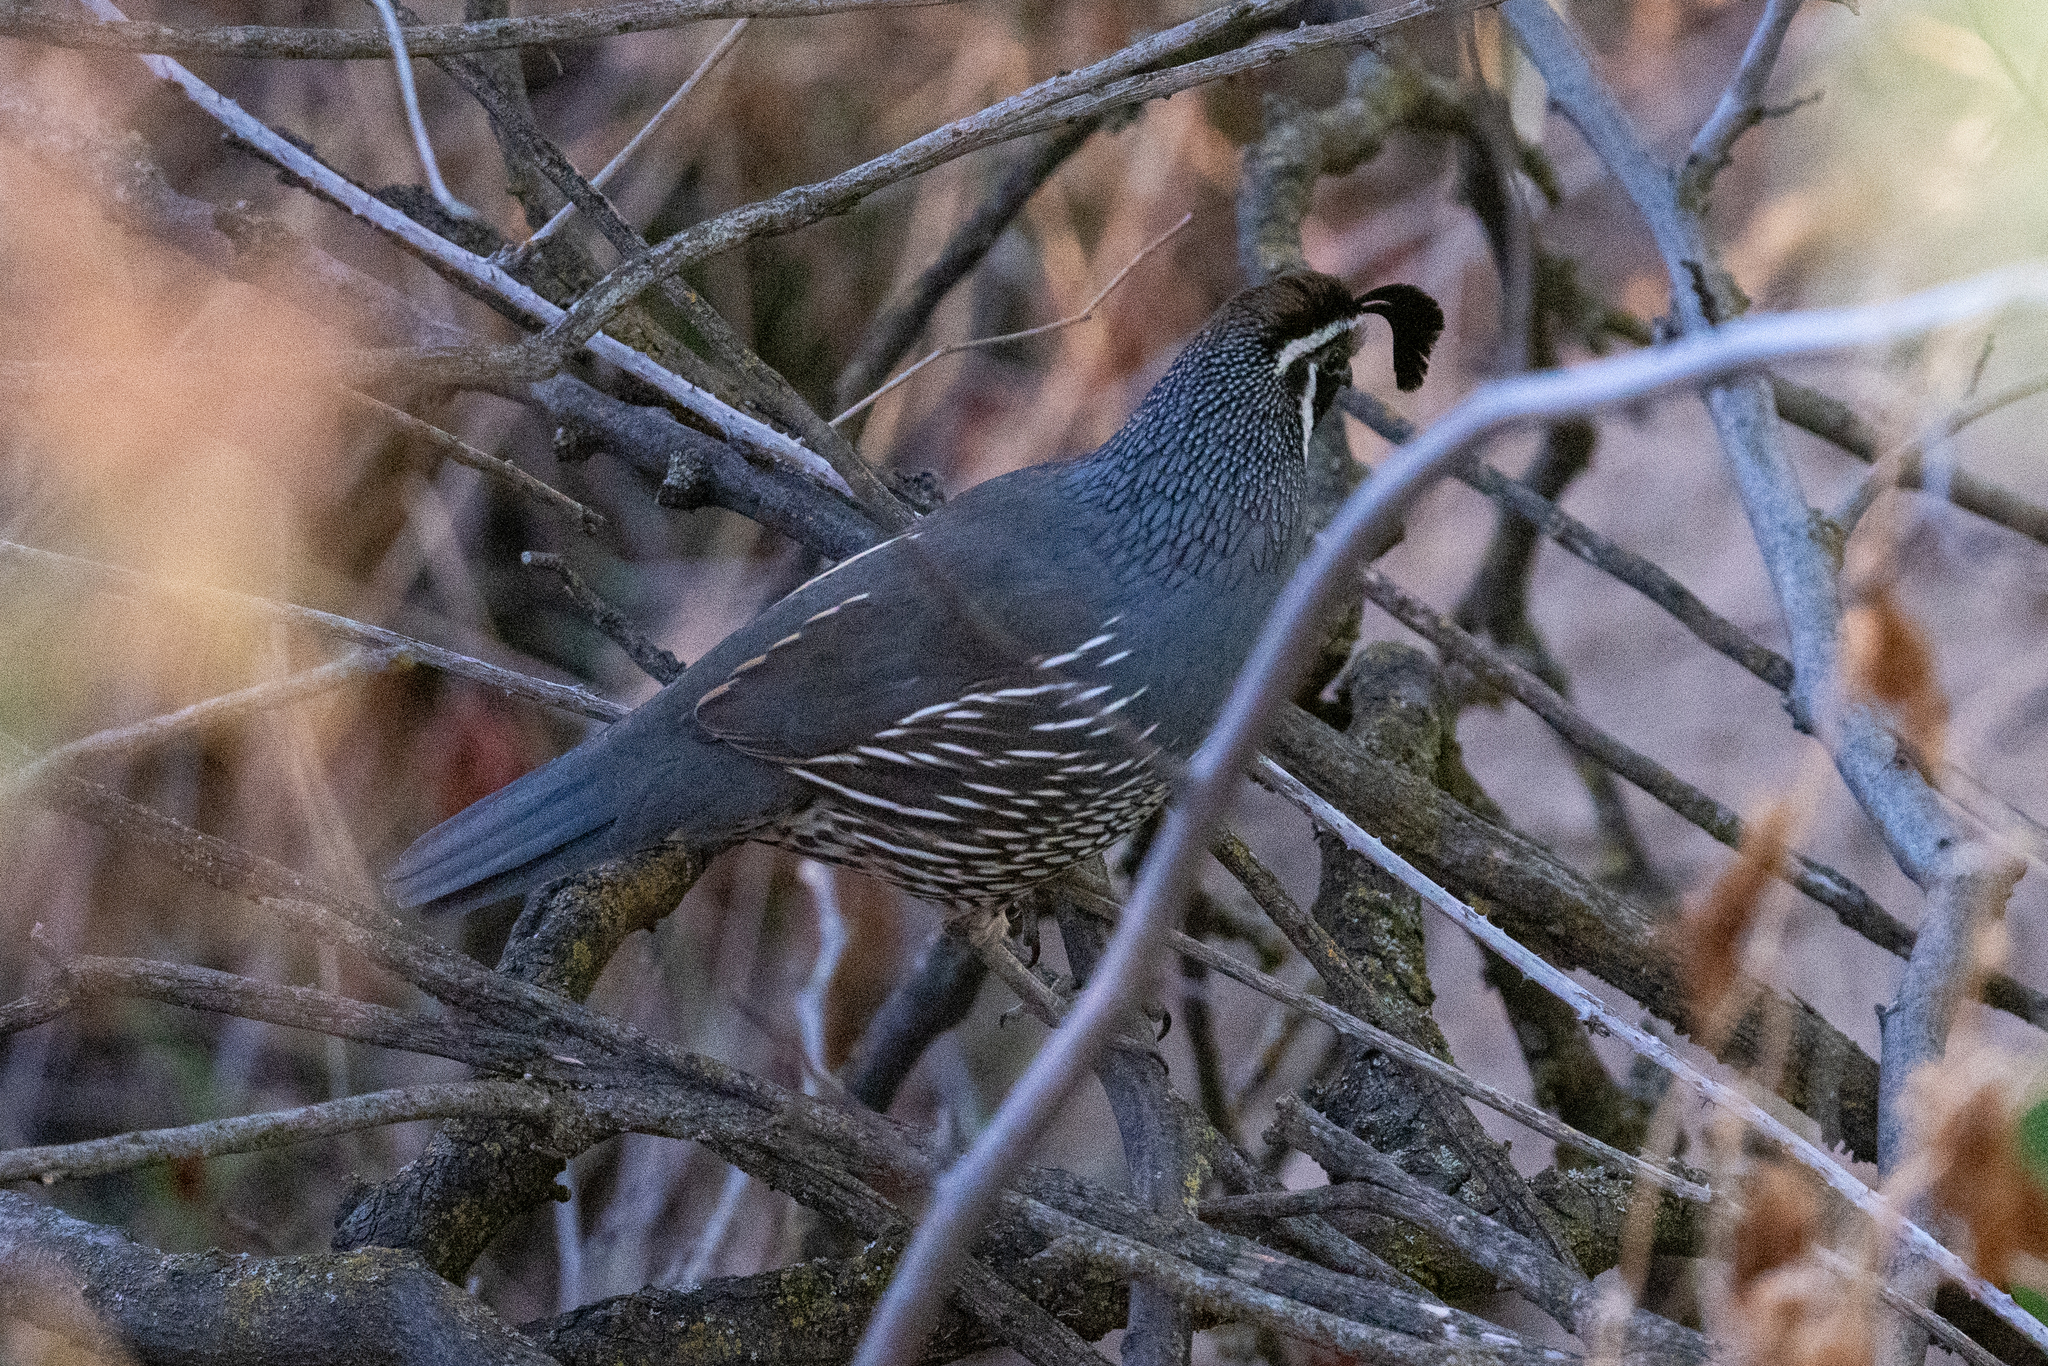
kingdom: Animalia
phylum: Chordata
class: Aves
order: Galliformes
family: Odontophoridae
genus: Callipepla
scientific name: Callipepla californica
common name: California quail
